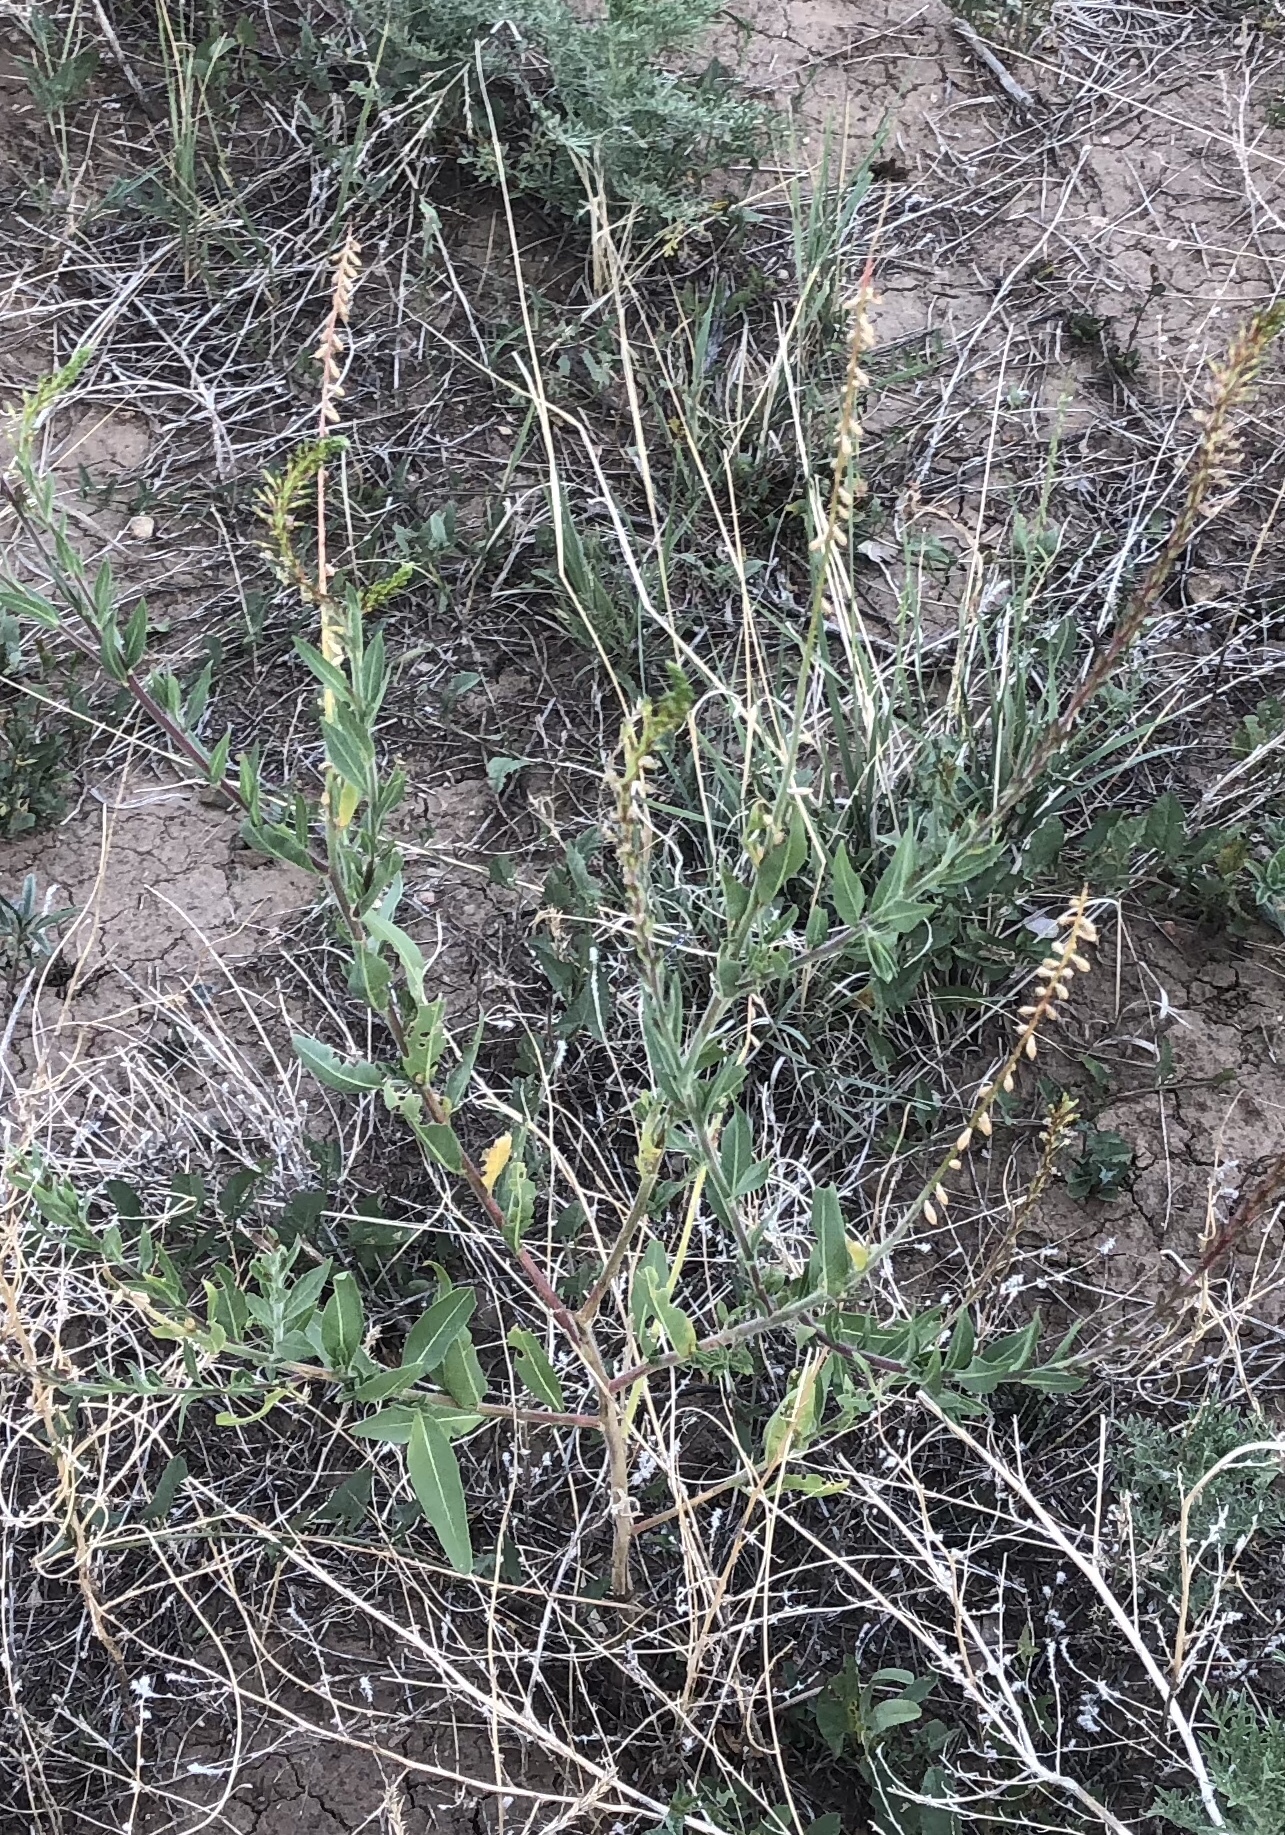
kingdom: Plantae
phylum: Tracheophyta
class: Magnoliopsida
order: Myrtales
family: Onagraceae
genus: Oenothera
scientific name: Oenothera curtiflora
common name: Velvetweed
